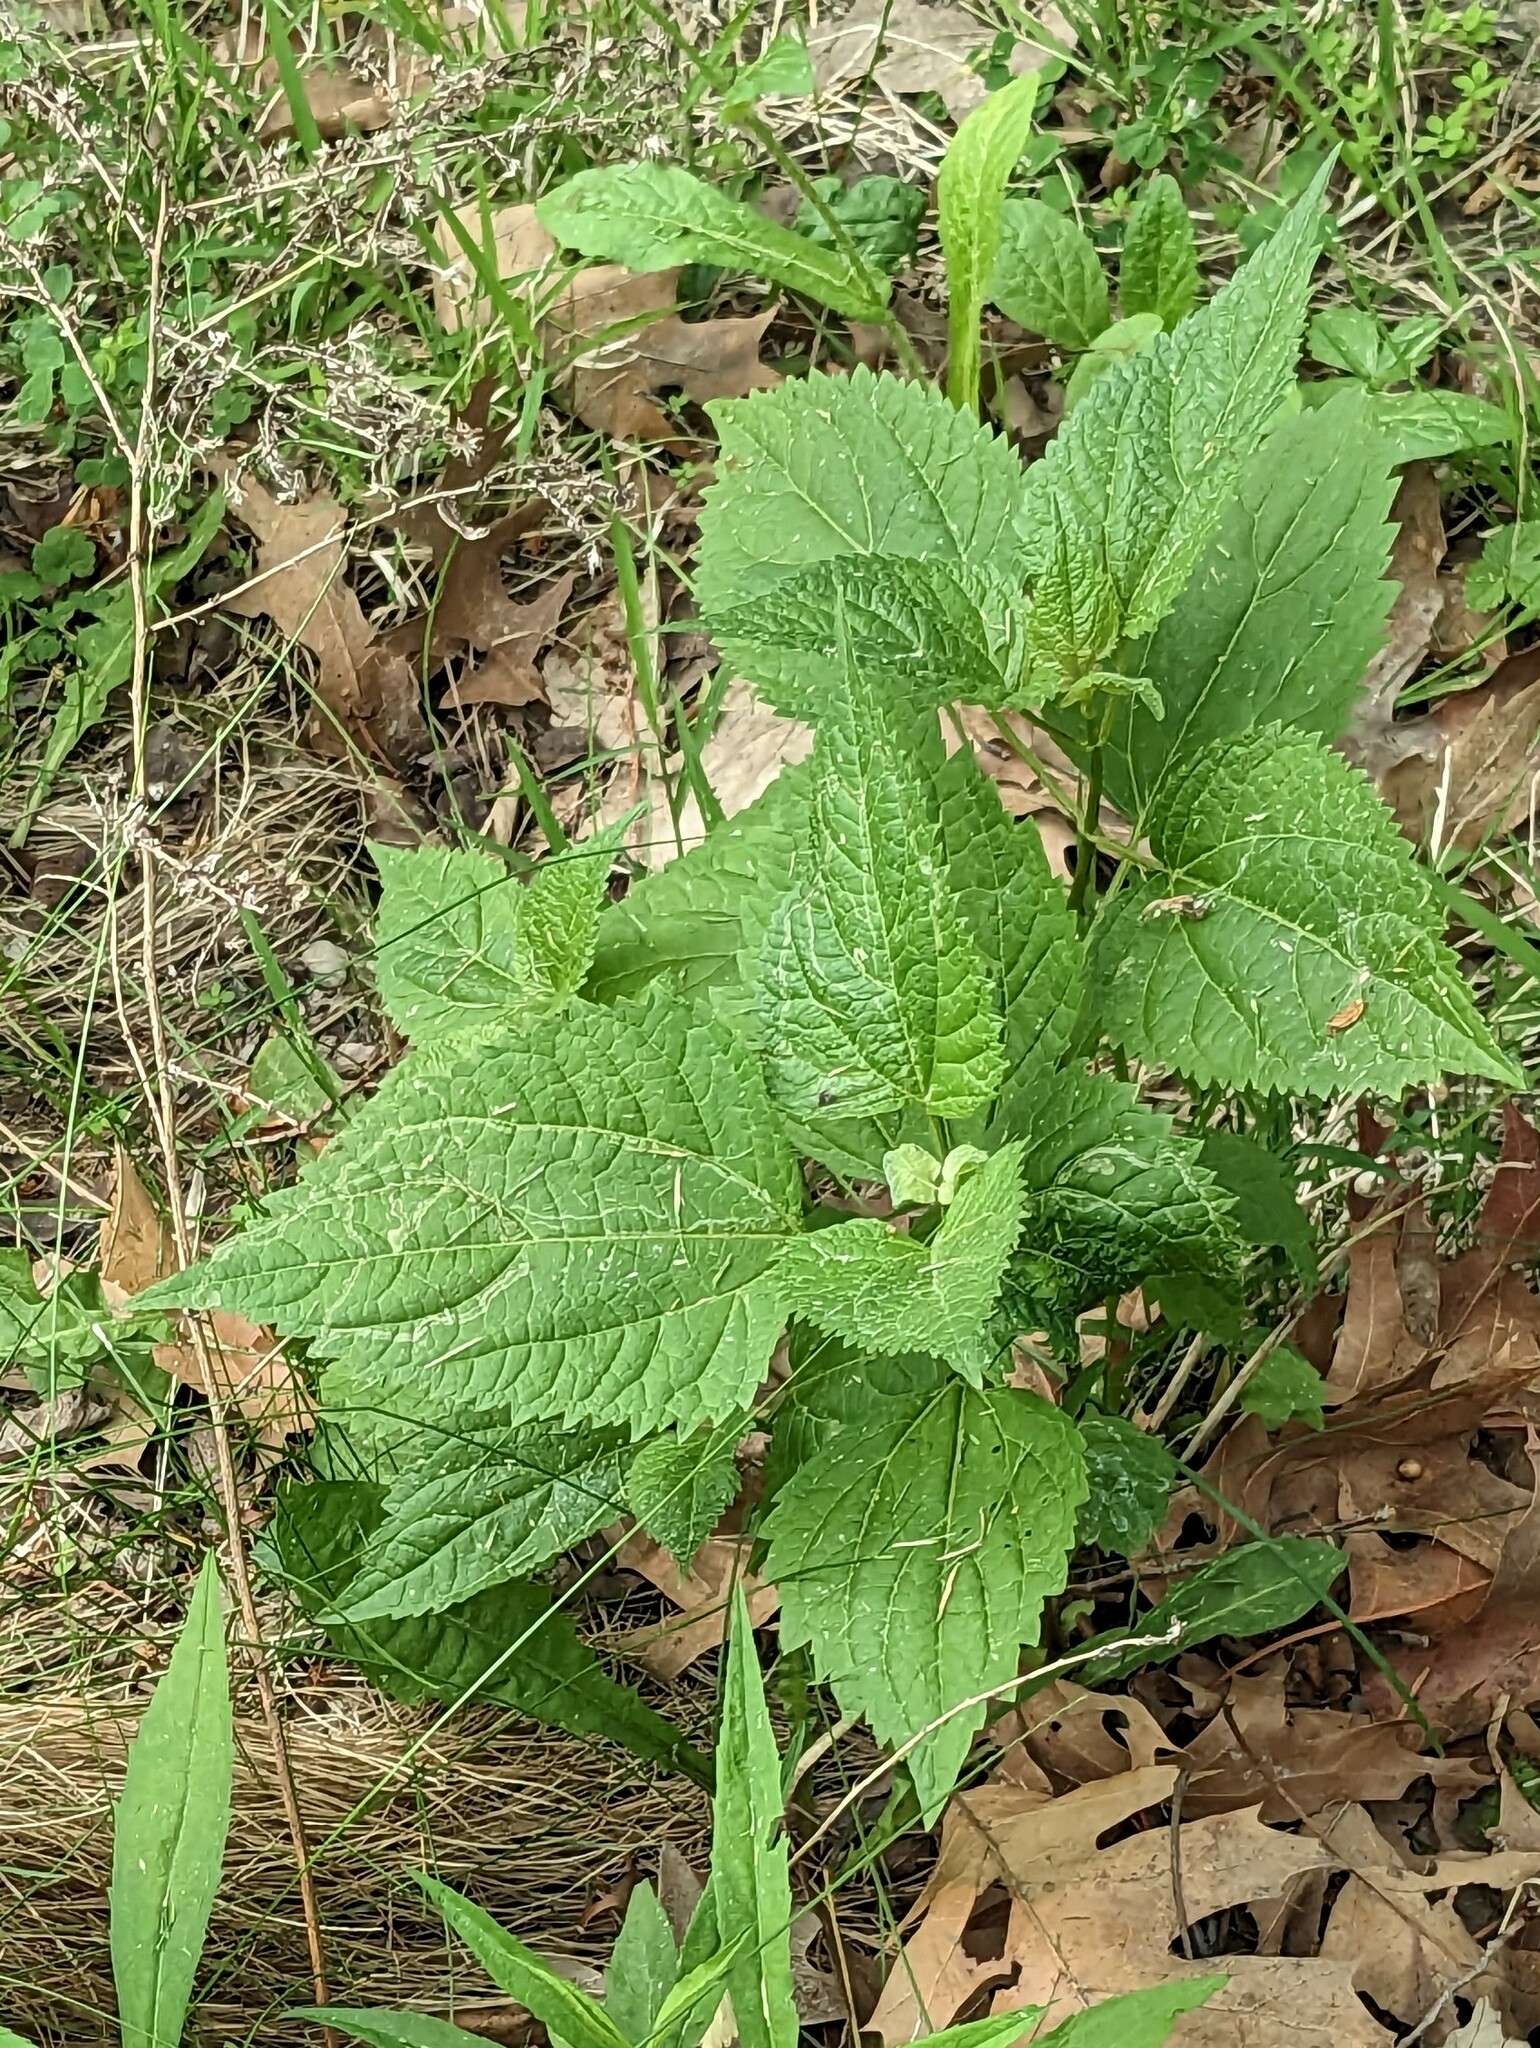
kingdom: Plantae
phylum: Tracheophyta
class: Magnoliopsida
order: Asterales
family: Asteraceae
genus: Ageratina
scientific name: Ageratina altissima
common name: White snakeroot
